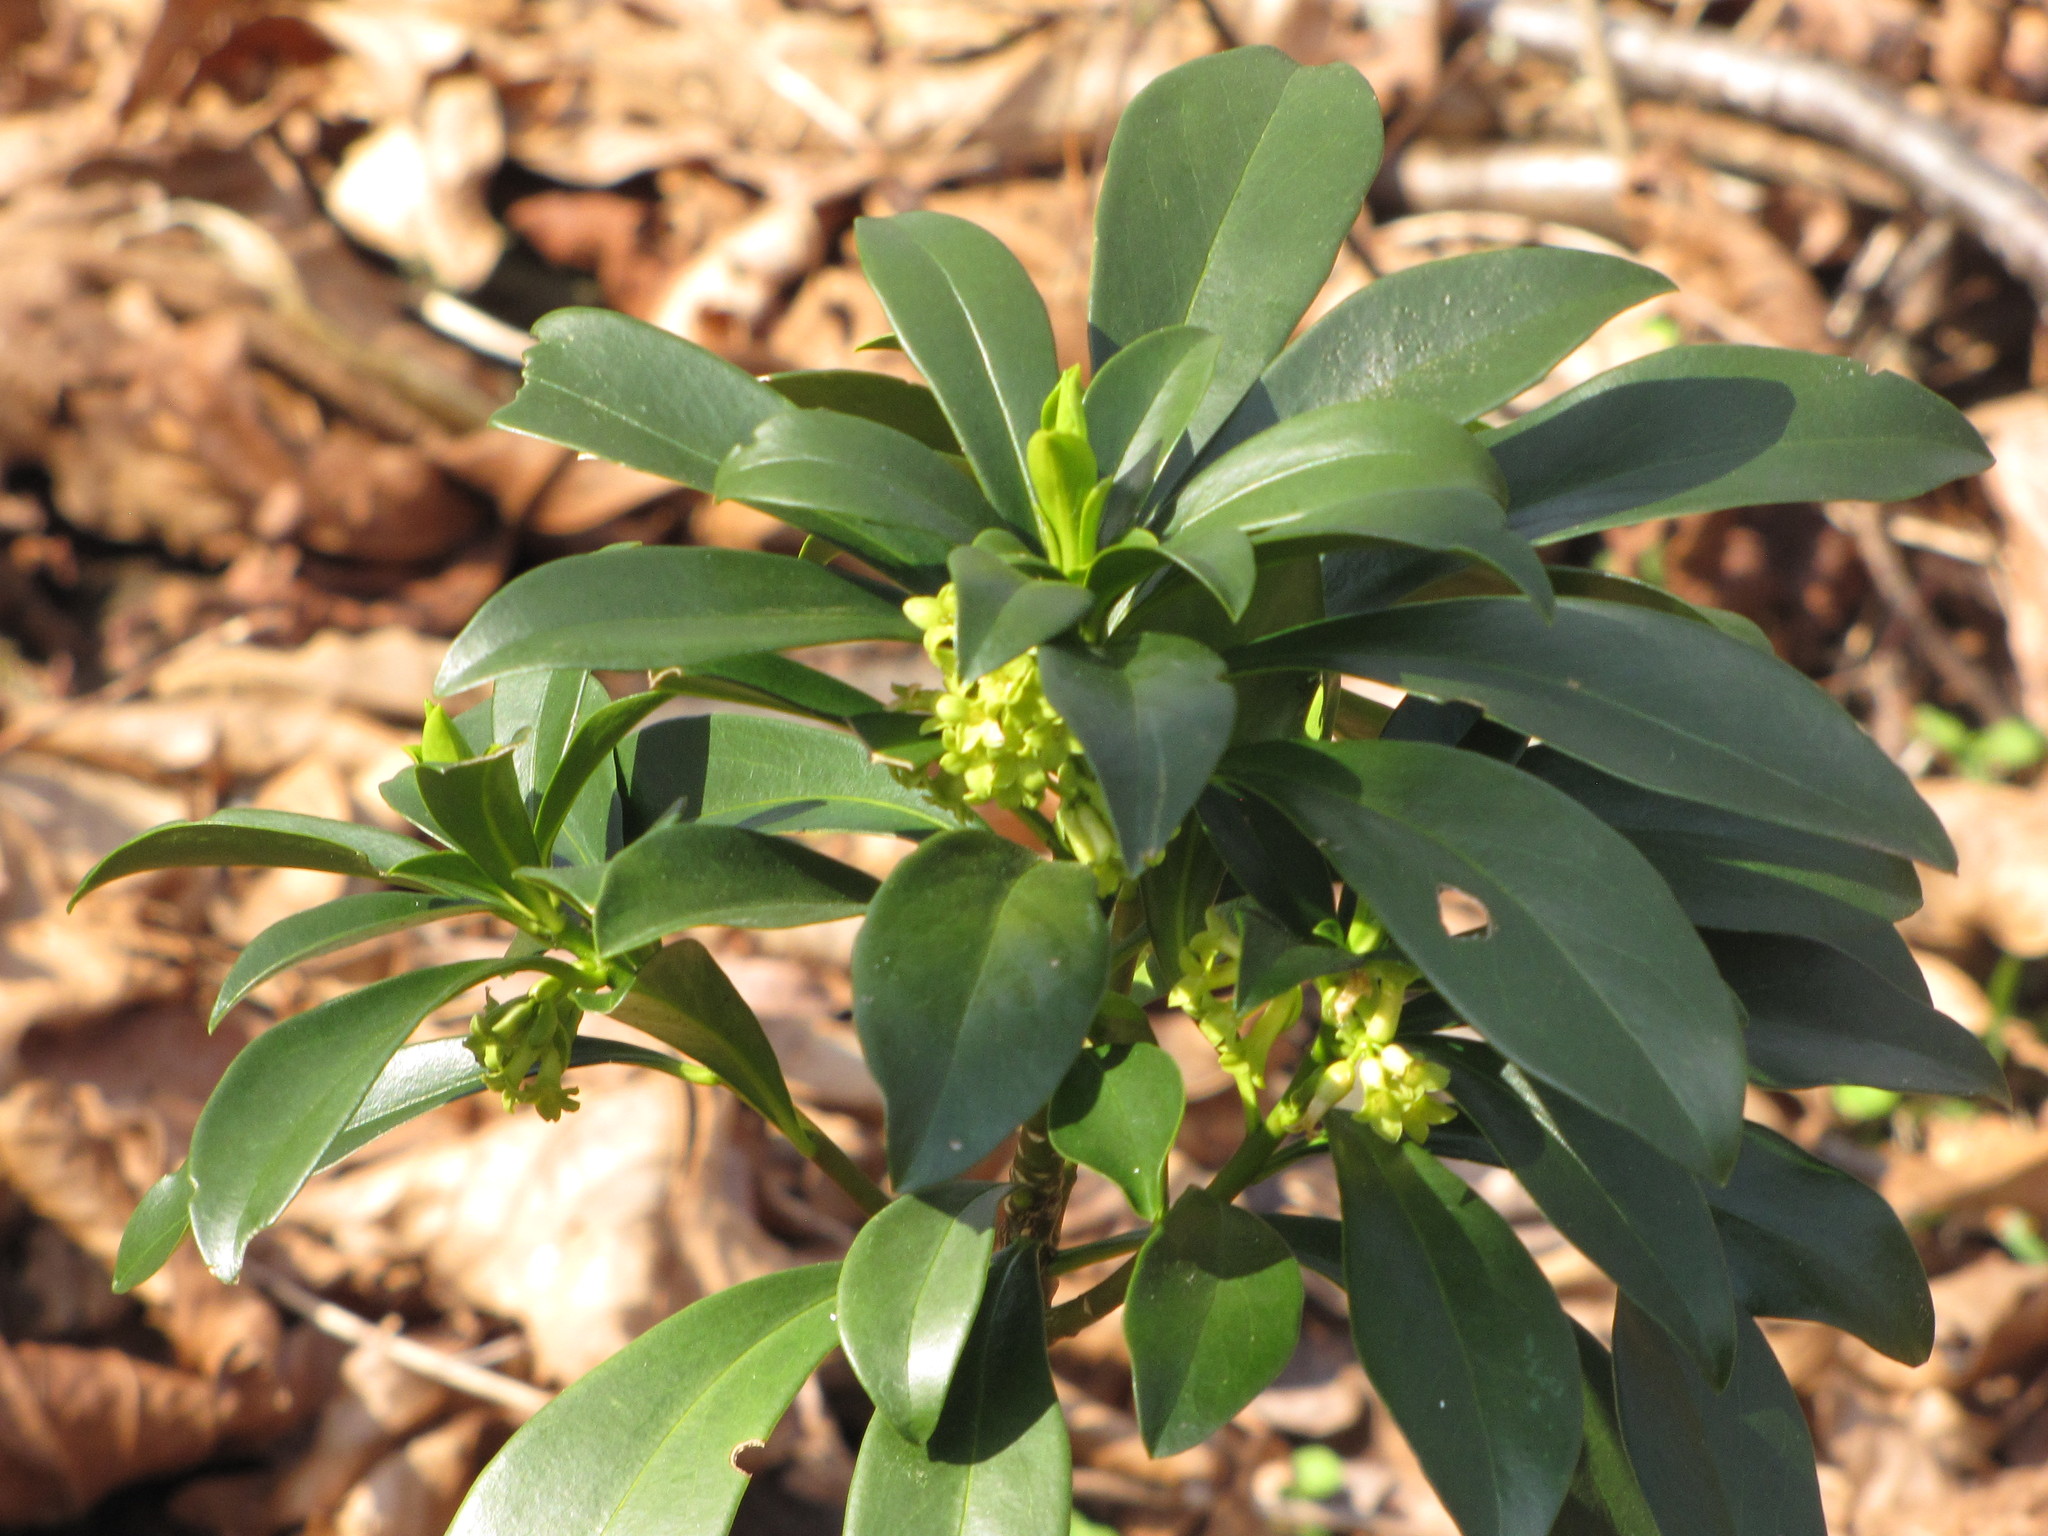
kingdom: Plantae
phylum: Tracheophyta
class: Magnoliopsida
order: Malvales
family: Thymelaeaceae
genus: Daphne
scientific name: Daphne laureola
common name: Spurge-laurel
